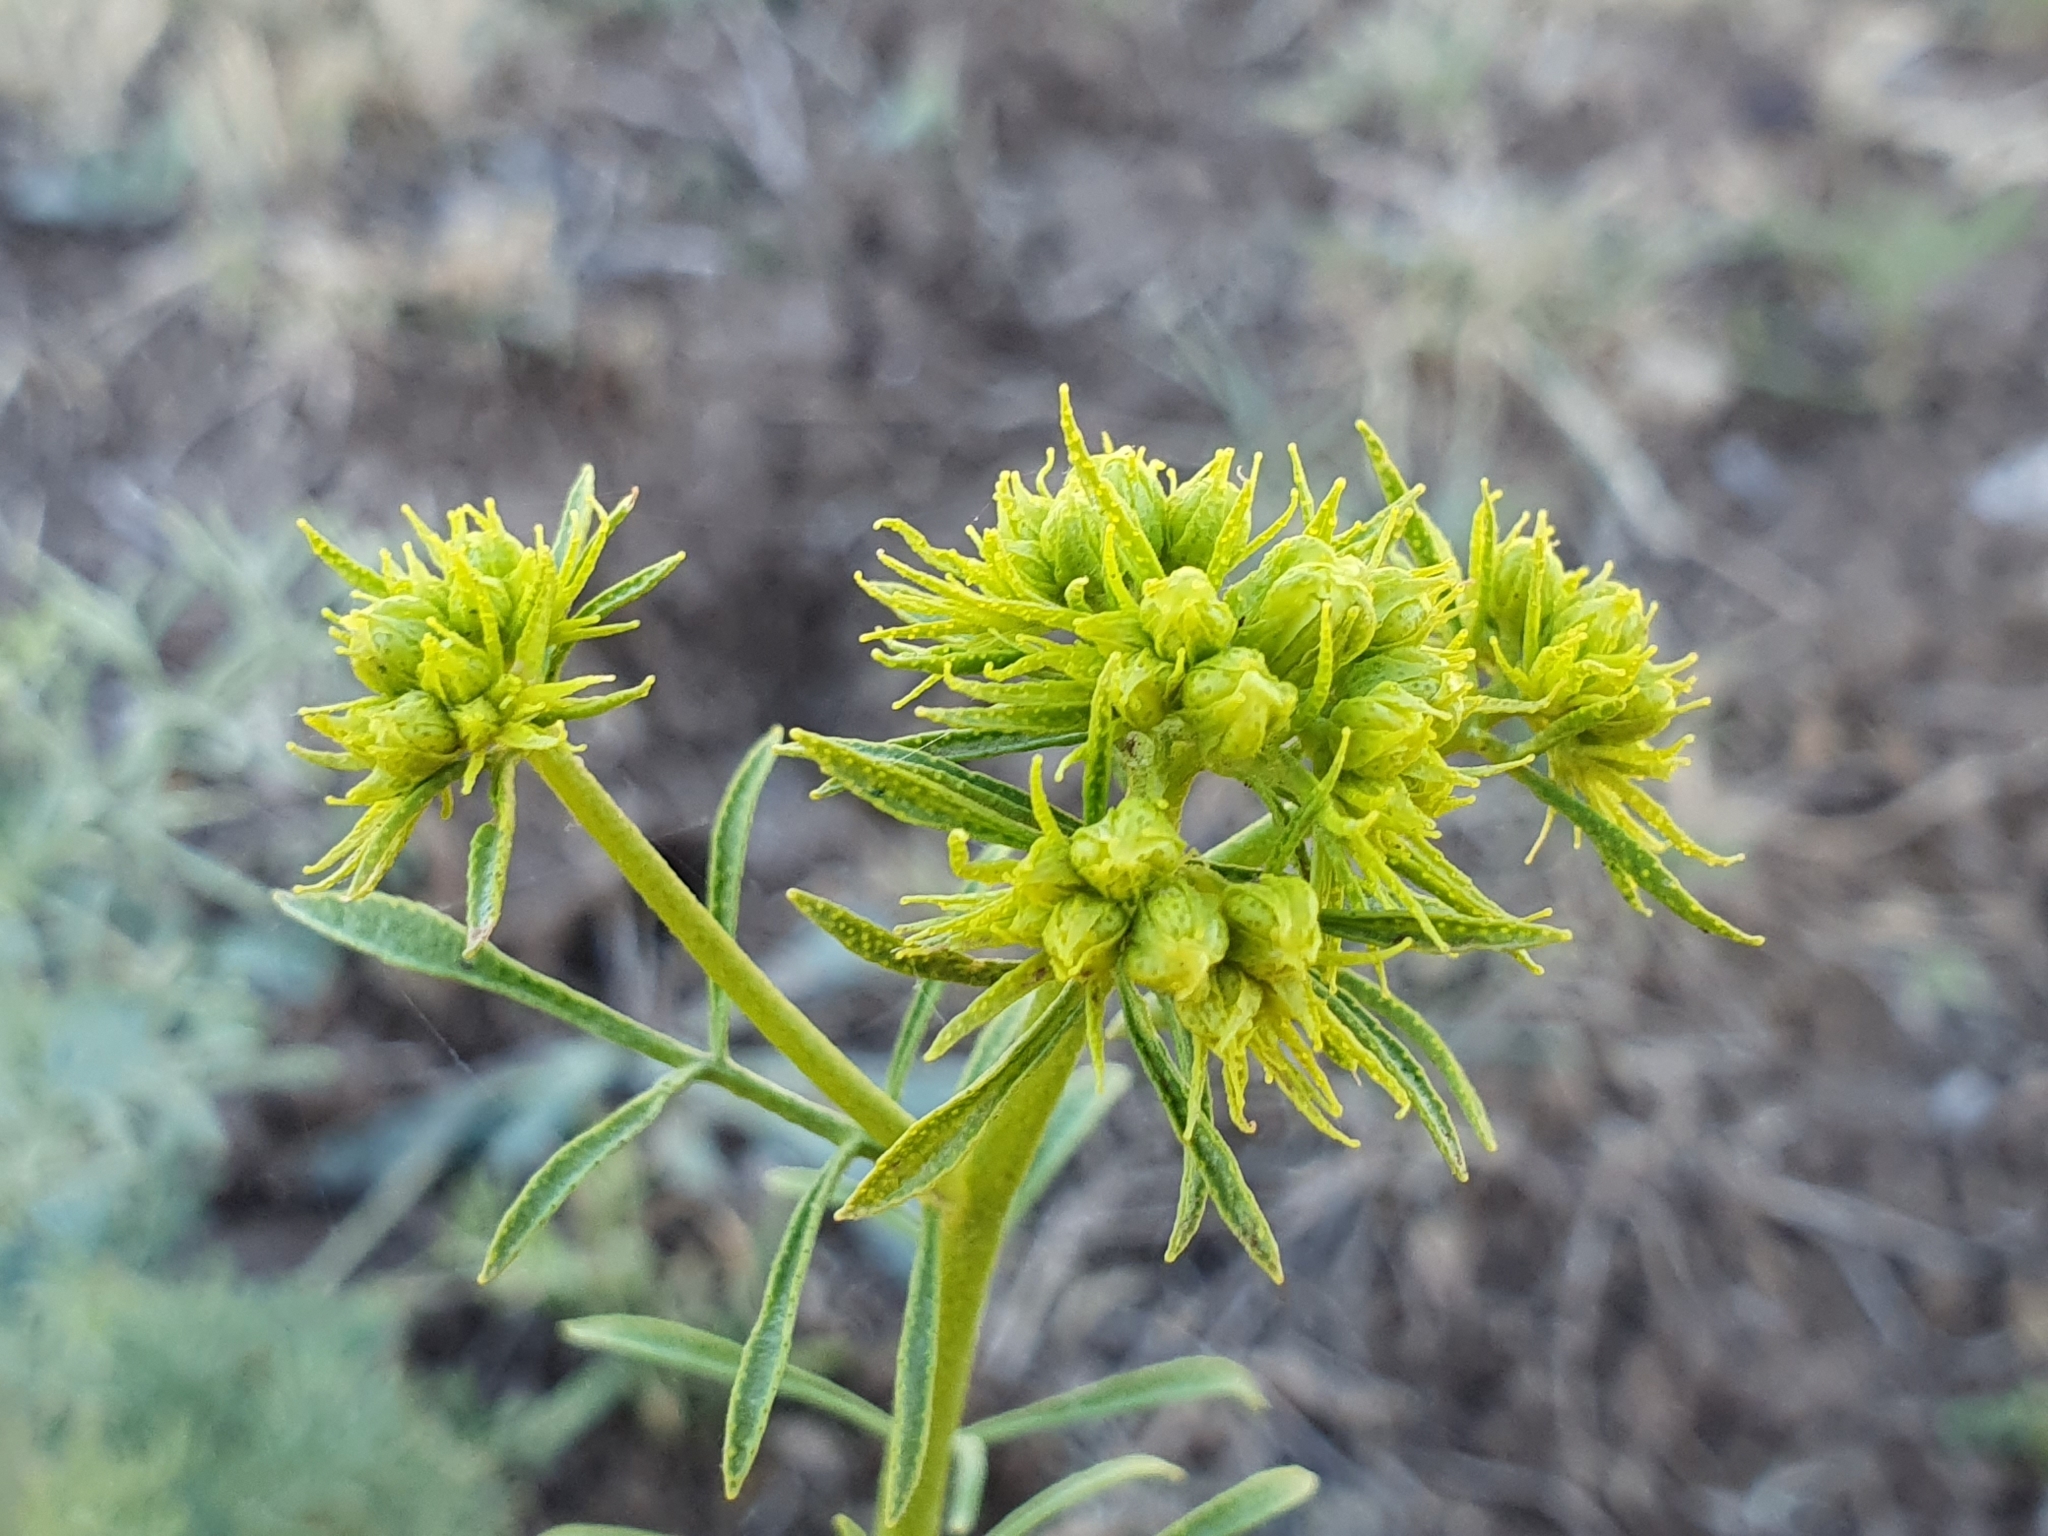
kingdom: Plantae
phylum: Tracheophyta
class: Magnoliopsida
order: Sapindales
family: Rutaceae
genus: Ruta
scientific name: Ruta montana
